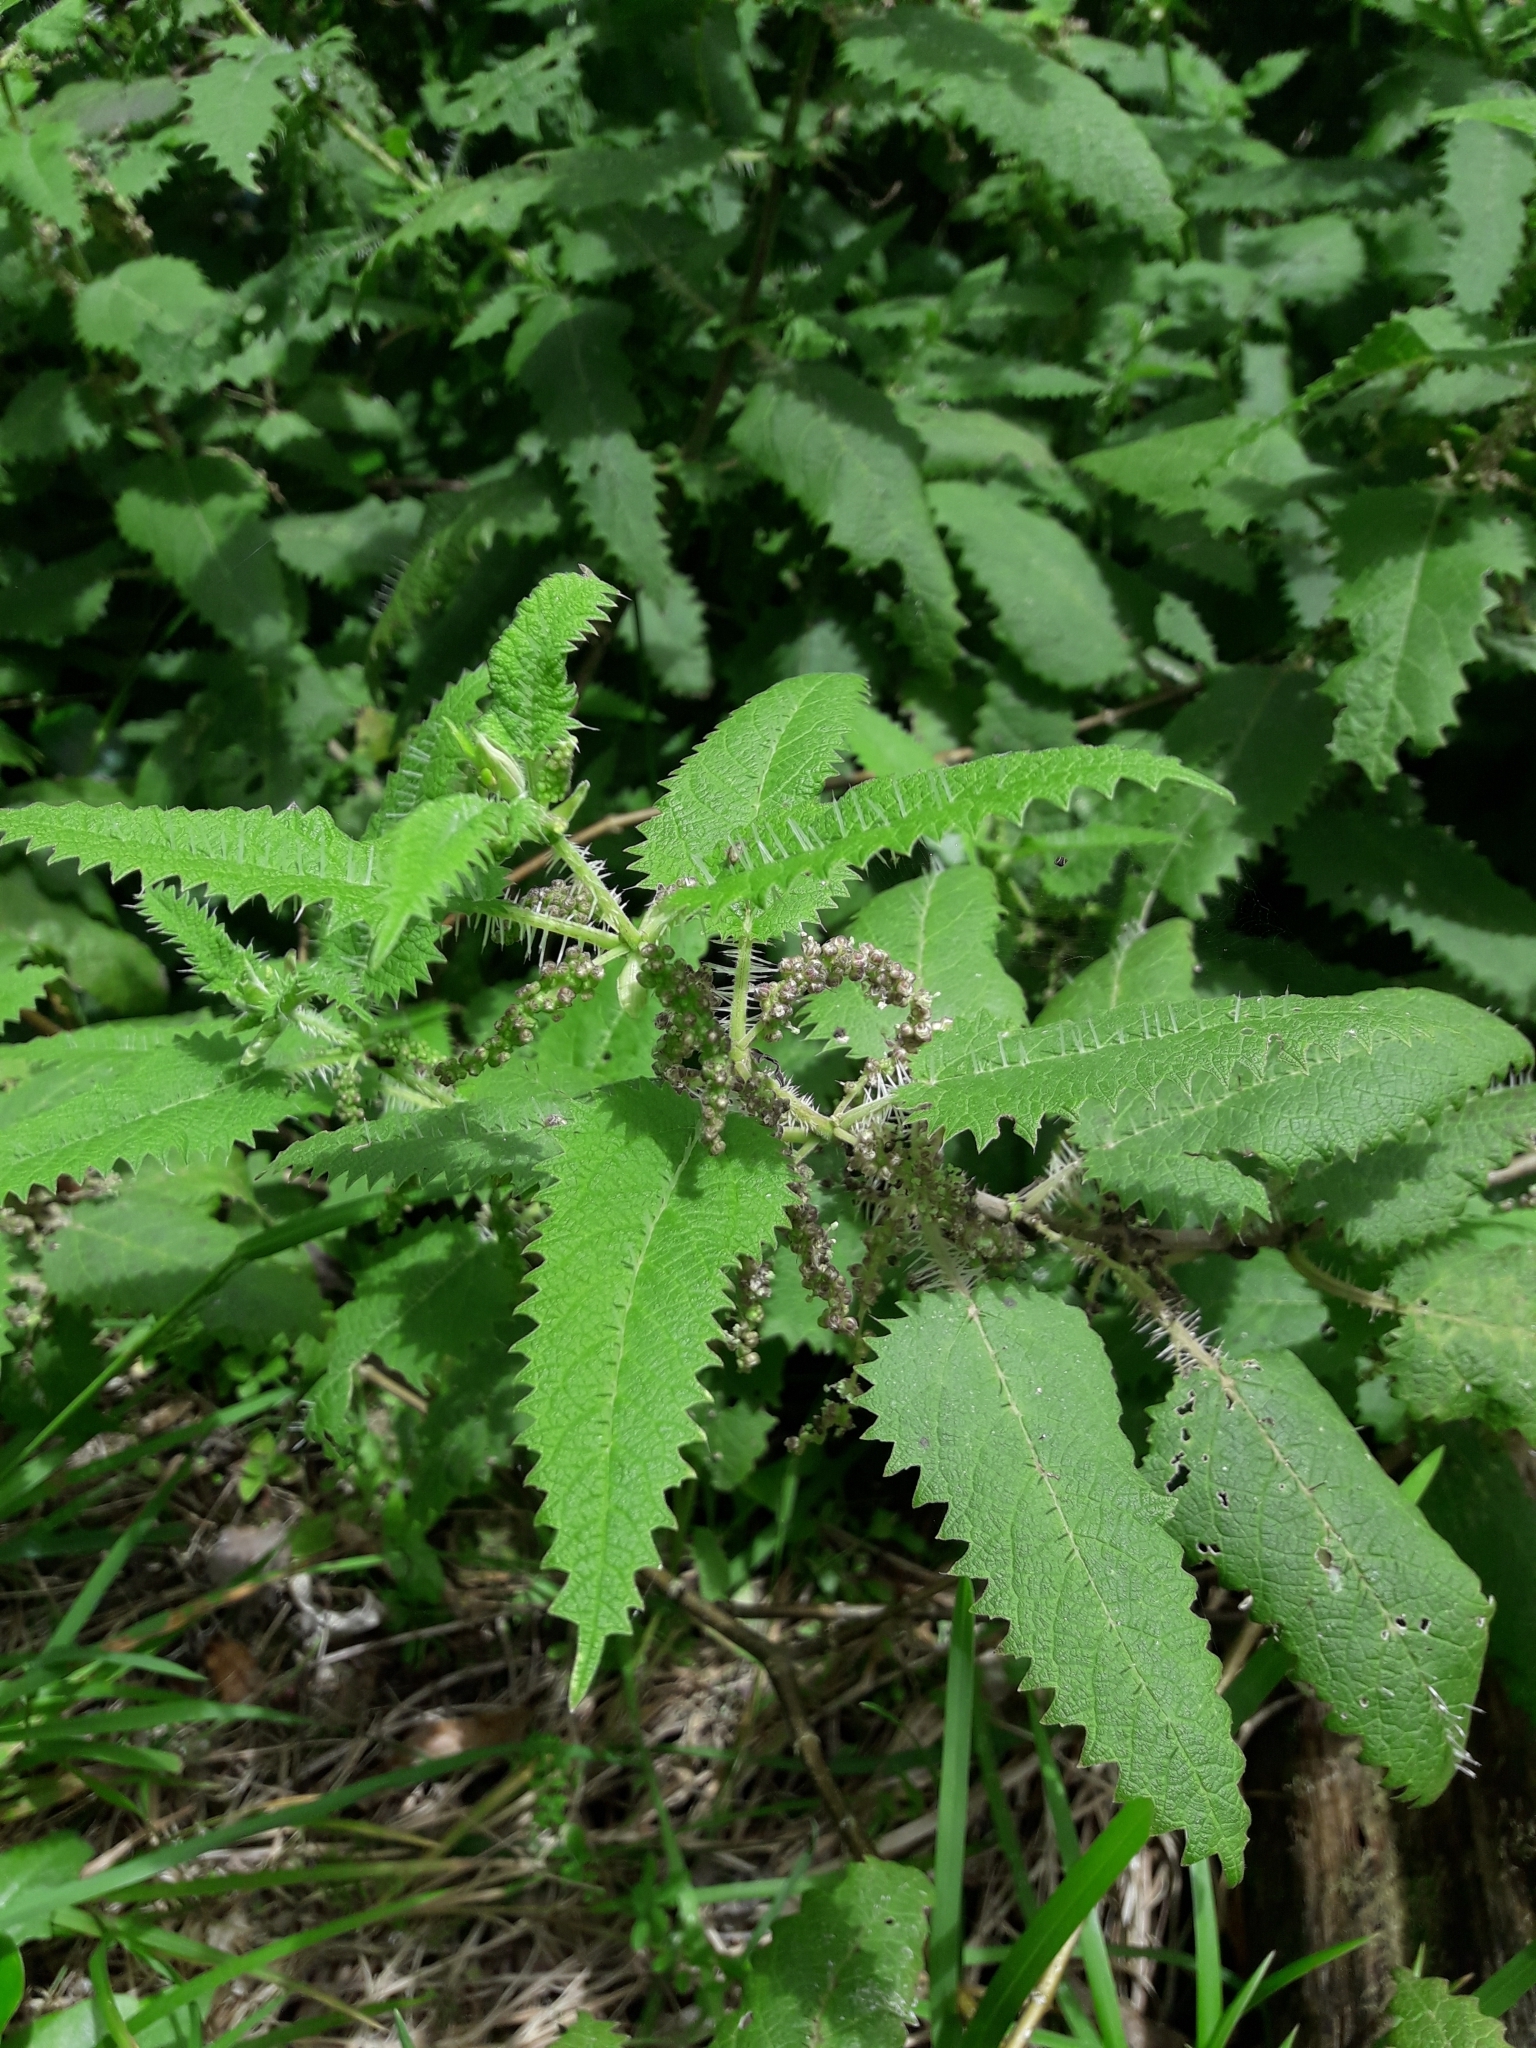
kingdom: Plantae
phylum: Tracheophyta
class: Magnoliopsida
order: Rosales
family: Urticaceae
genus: Urtica
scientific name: Urtica ferox
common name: Tree nettle
